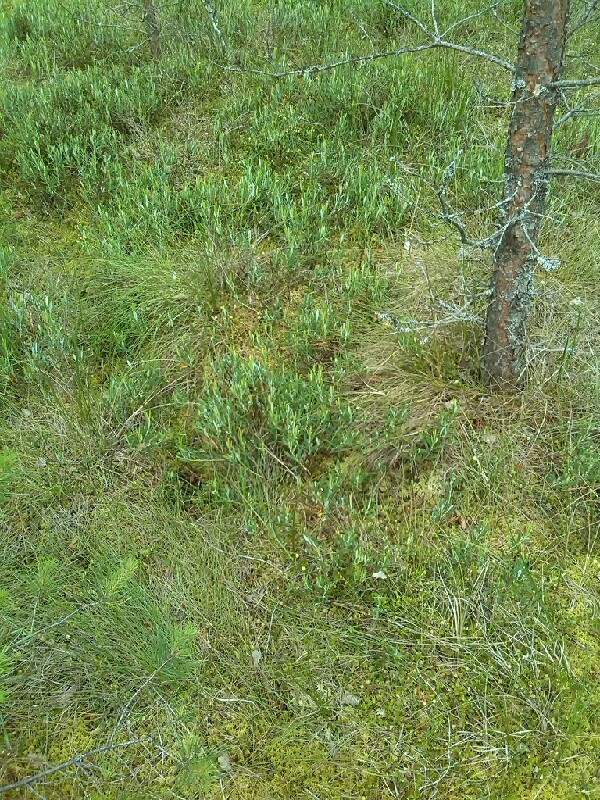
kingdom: Plantae
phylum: Tracheophyta
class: Magnoliopsida
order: Ericales
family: Ericaceae
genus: Andromeda
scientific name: Andromeda polifolia
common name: Bog-rosemary
